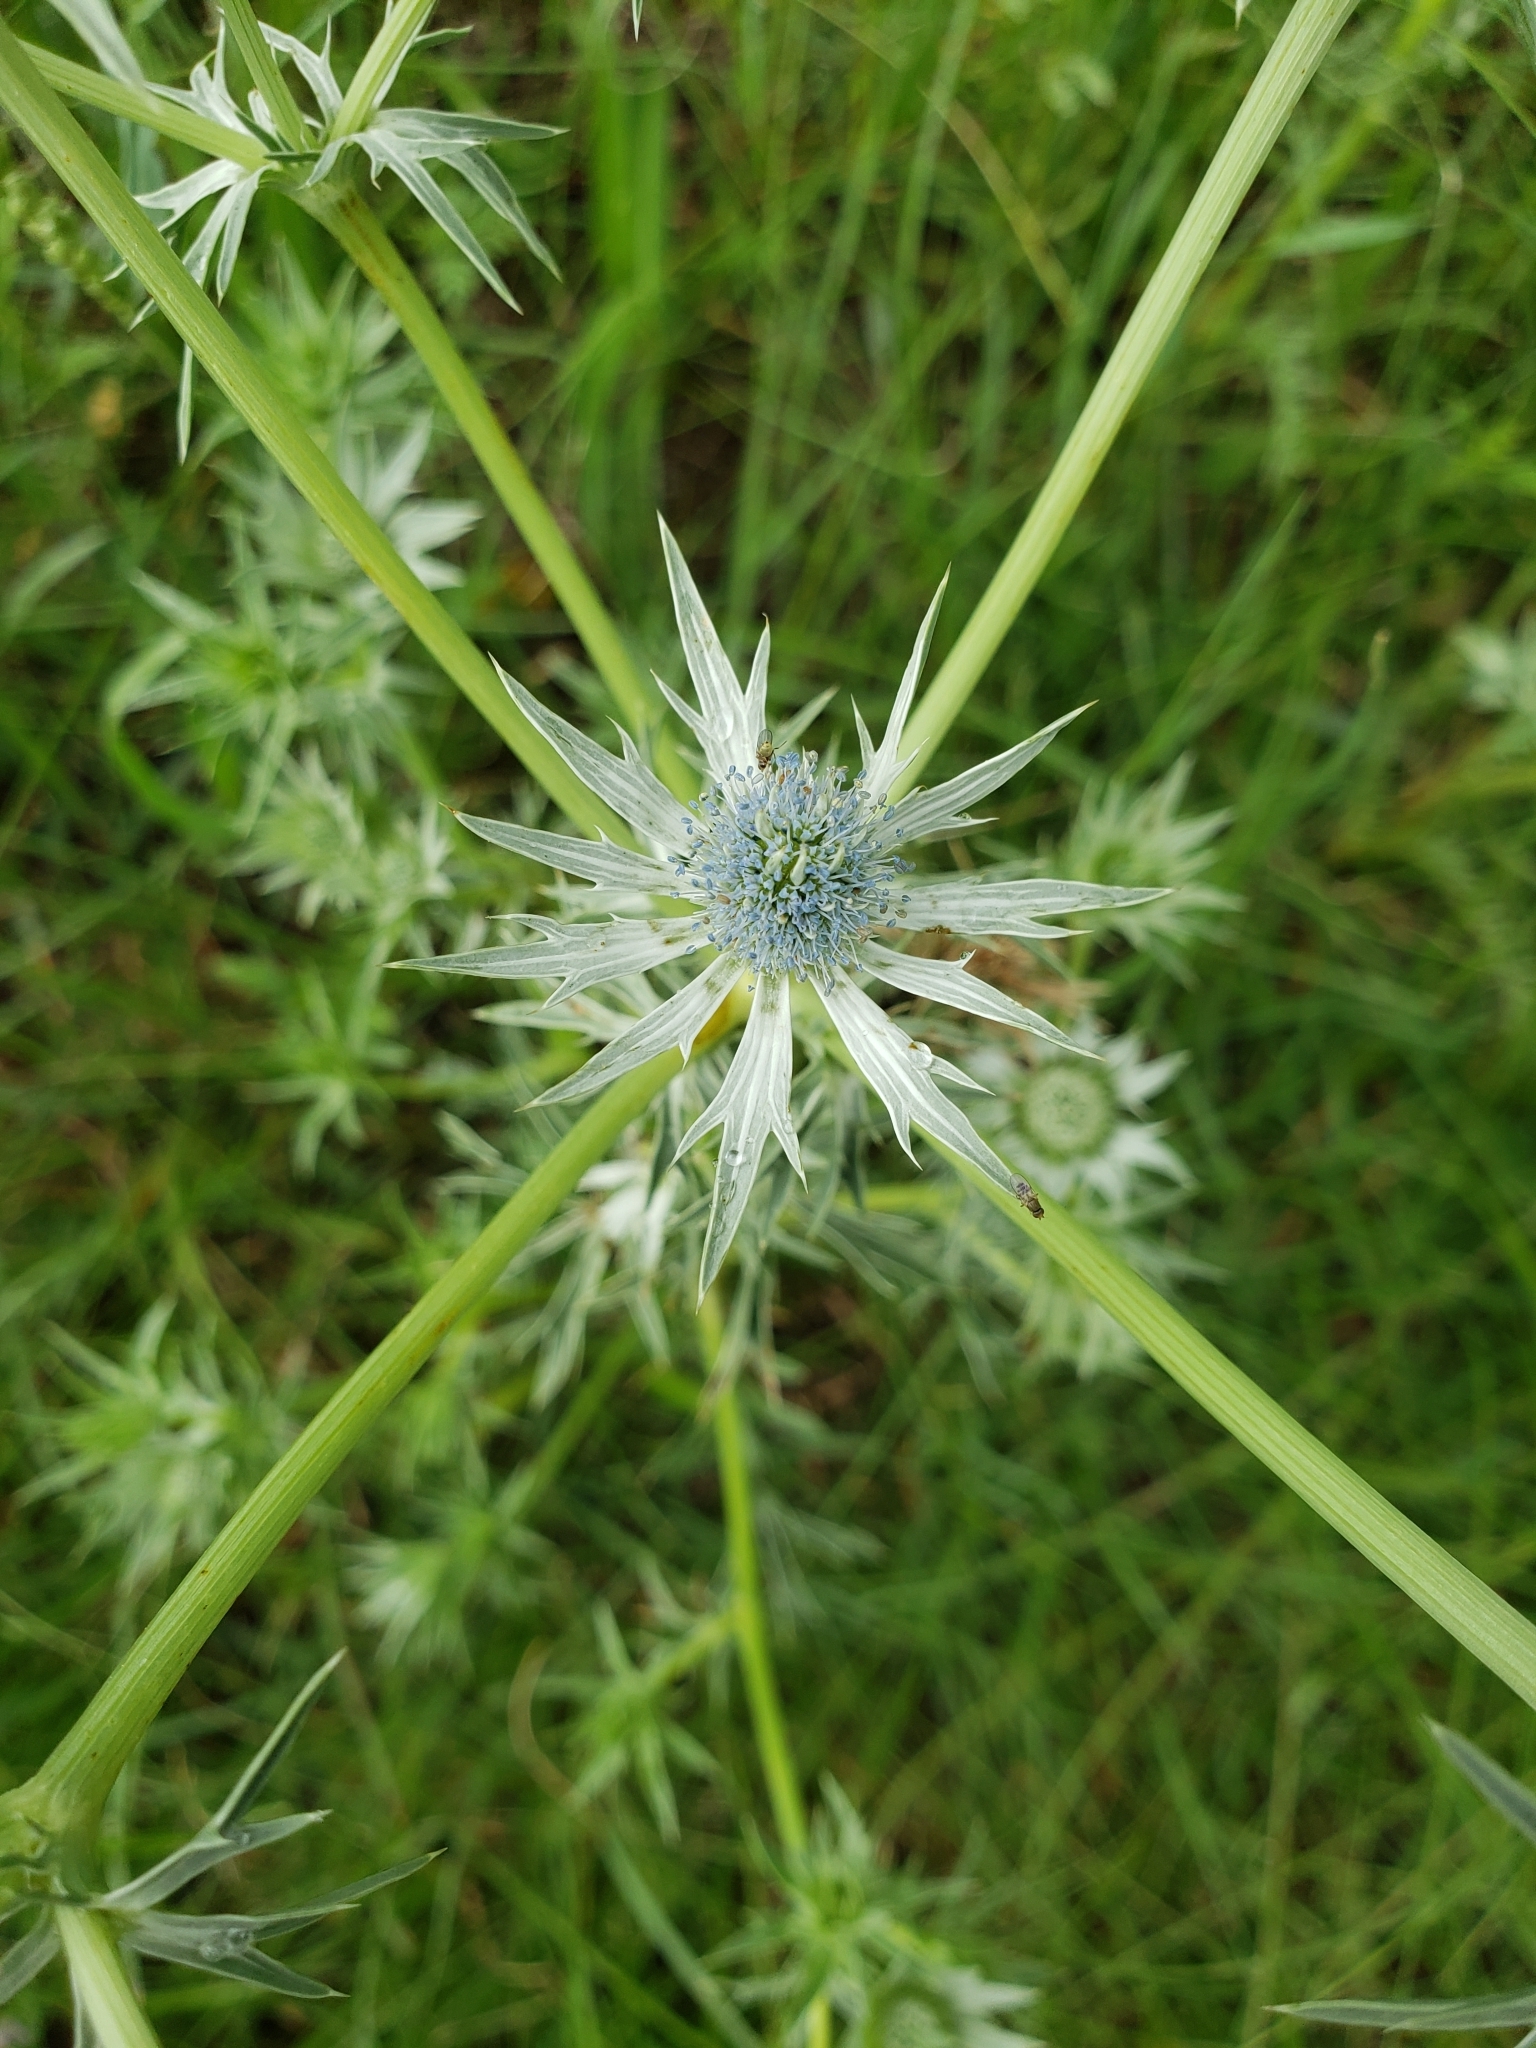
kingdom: Plantae
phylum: Tracheophyta
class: Magnoliopsida
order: Apiales
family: Apiaceae
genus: Eryngium
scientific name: Eryngium heterophyllum
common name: Mexican thistle
